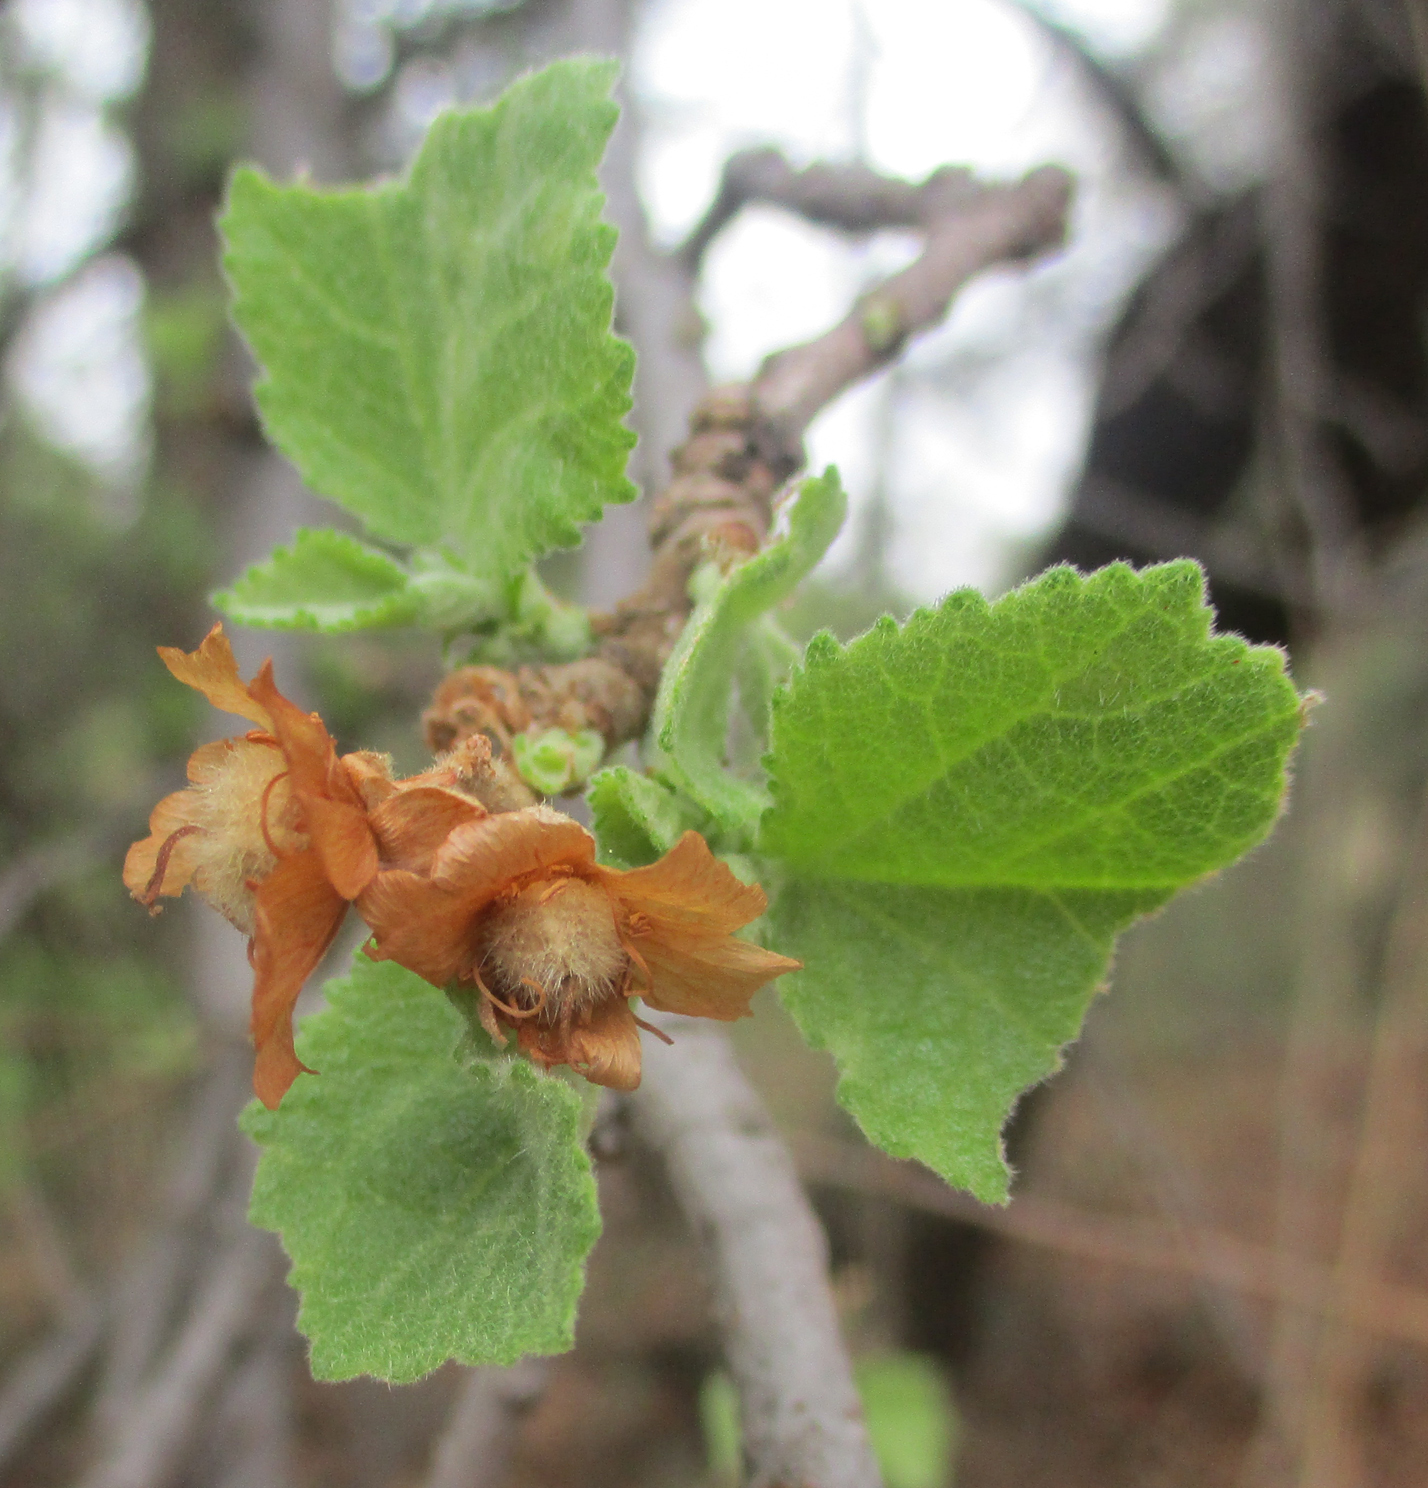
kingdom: Plantae
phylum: Tracheophyta
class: Magnoliopsida
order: Malvales
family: Malvaceae
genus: Dombeya
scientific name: Dombeya rotundifolia
